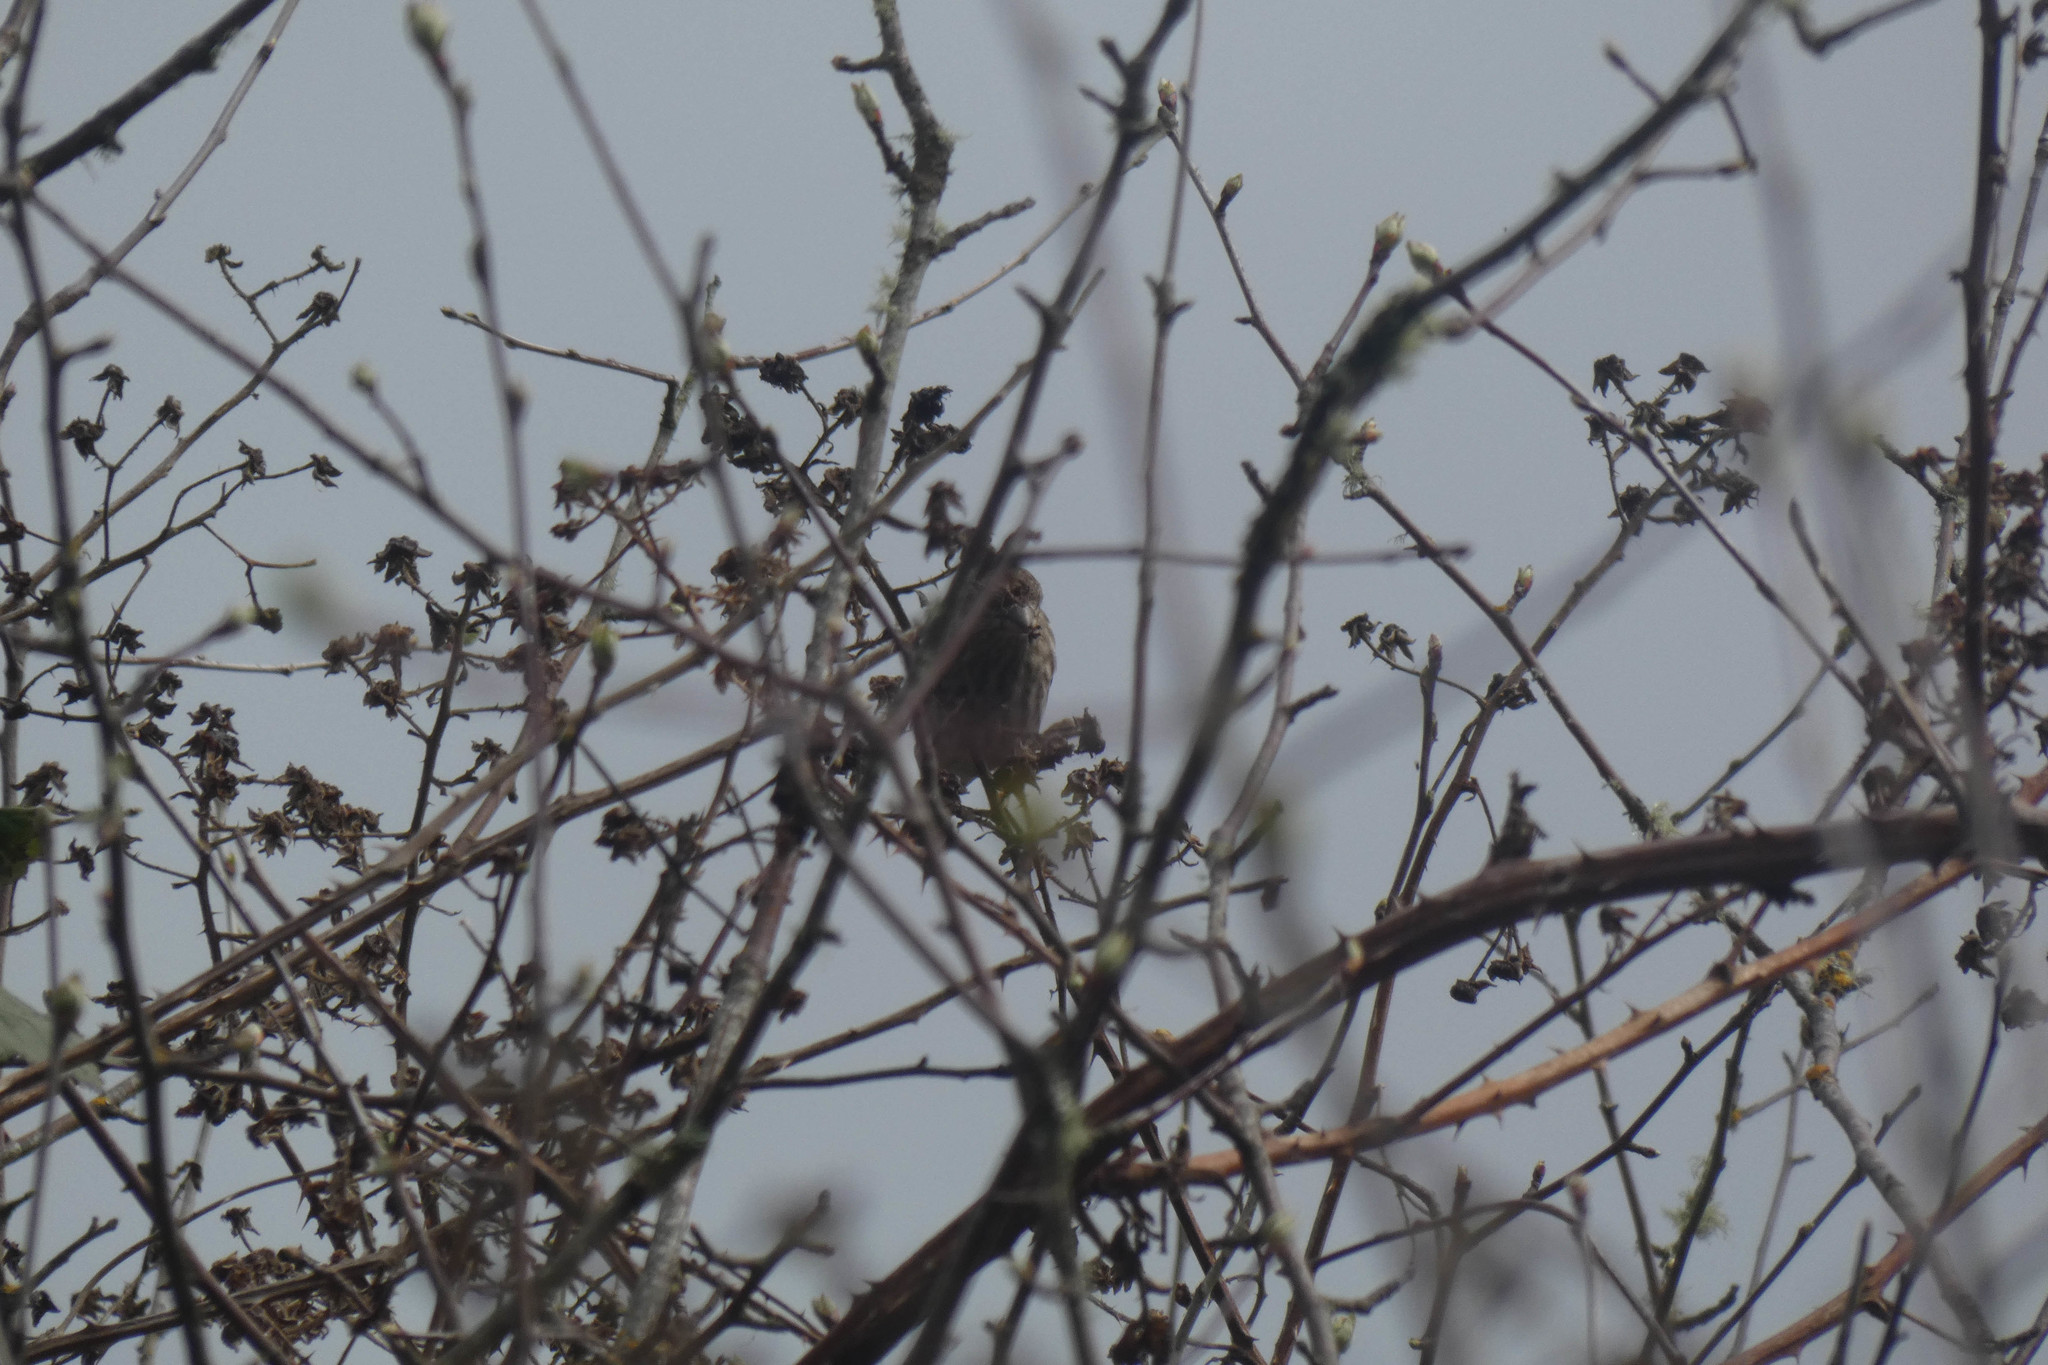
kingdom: Animalia
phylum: Chordata
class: Aves
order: Passeriformes
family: Fringillidae
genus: Haemorhous
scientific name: Haemorhous mexicanus
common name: House finch
